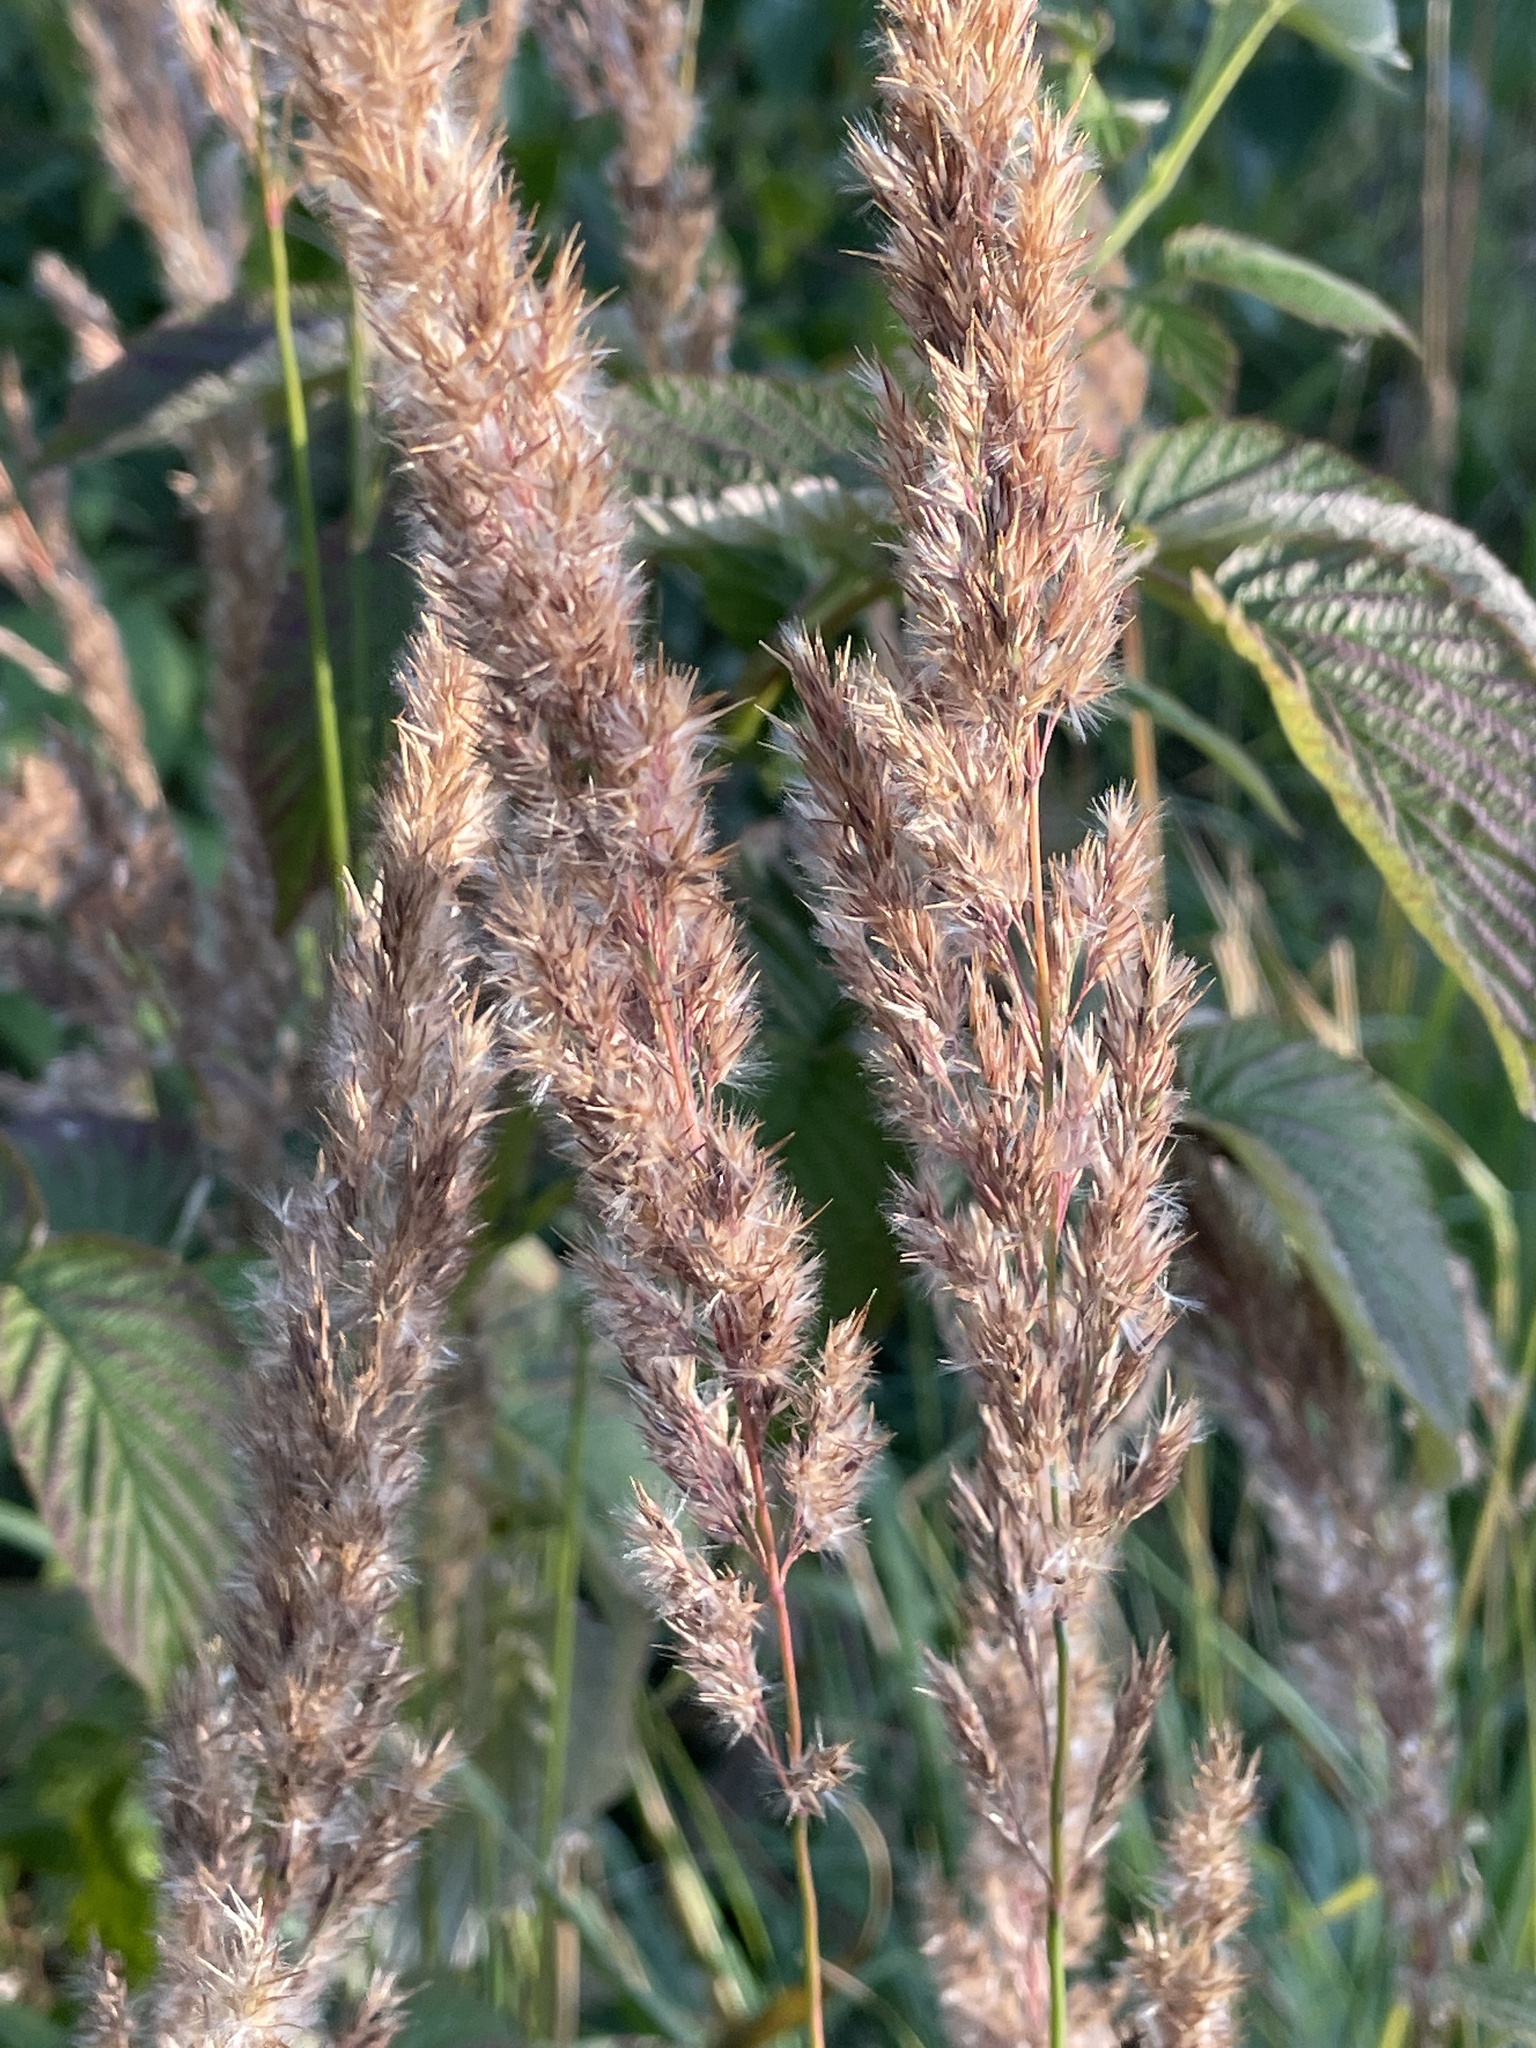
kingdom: Plantae
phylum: Tracheophyta
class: Liliopsida
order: Poales
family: Poaceae
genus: Calamagrostis
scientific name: Calamagrostis epigejos
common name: Wood small-reed
